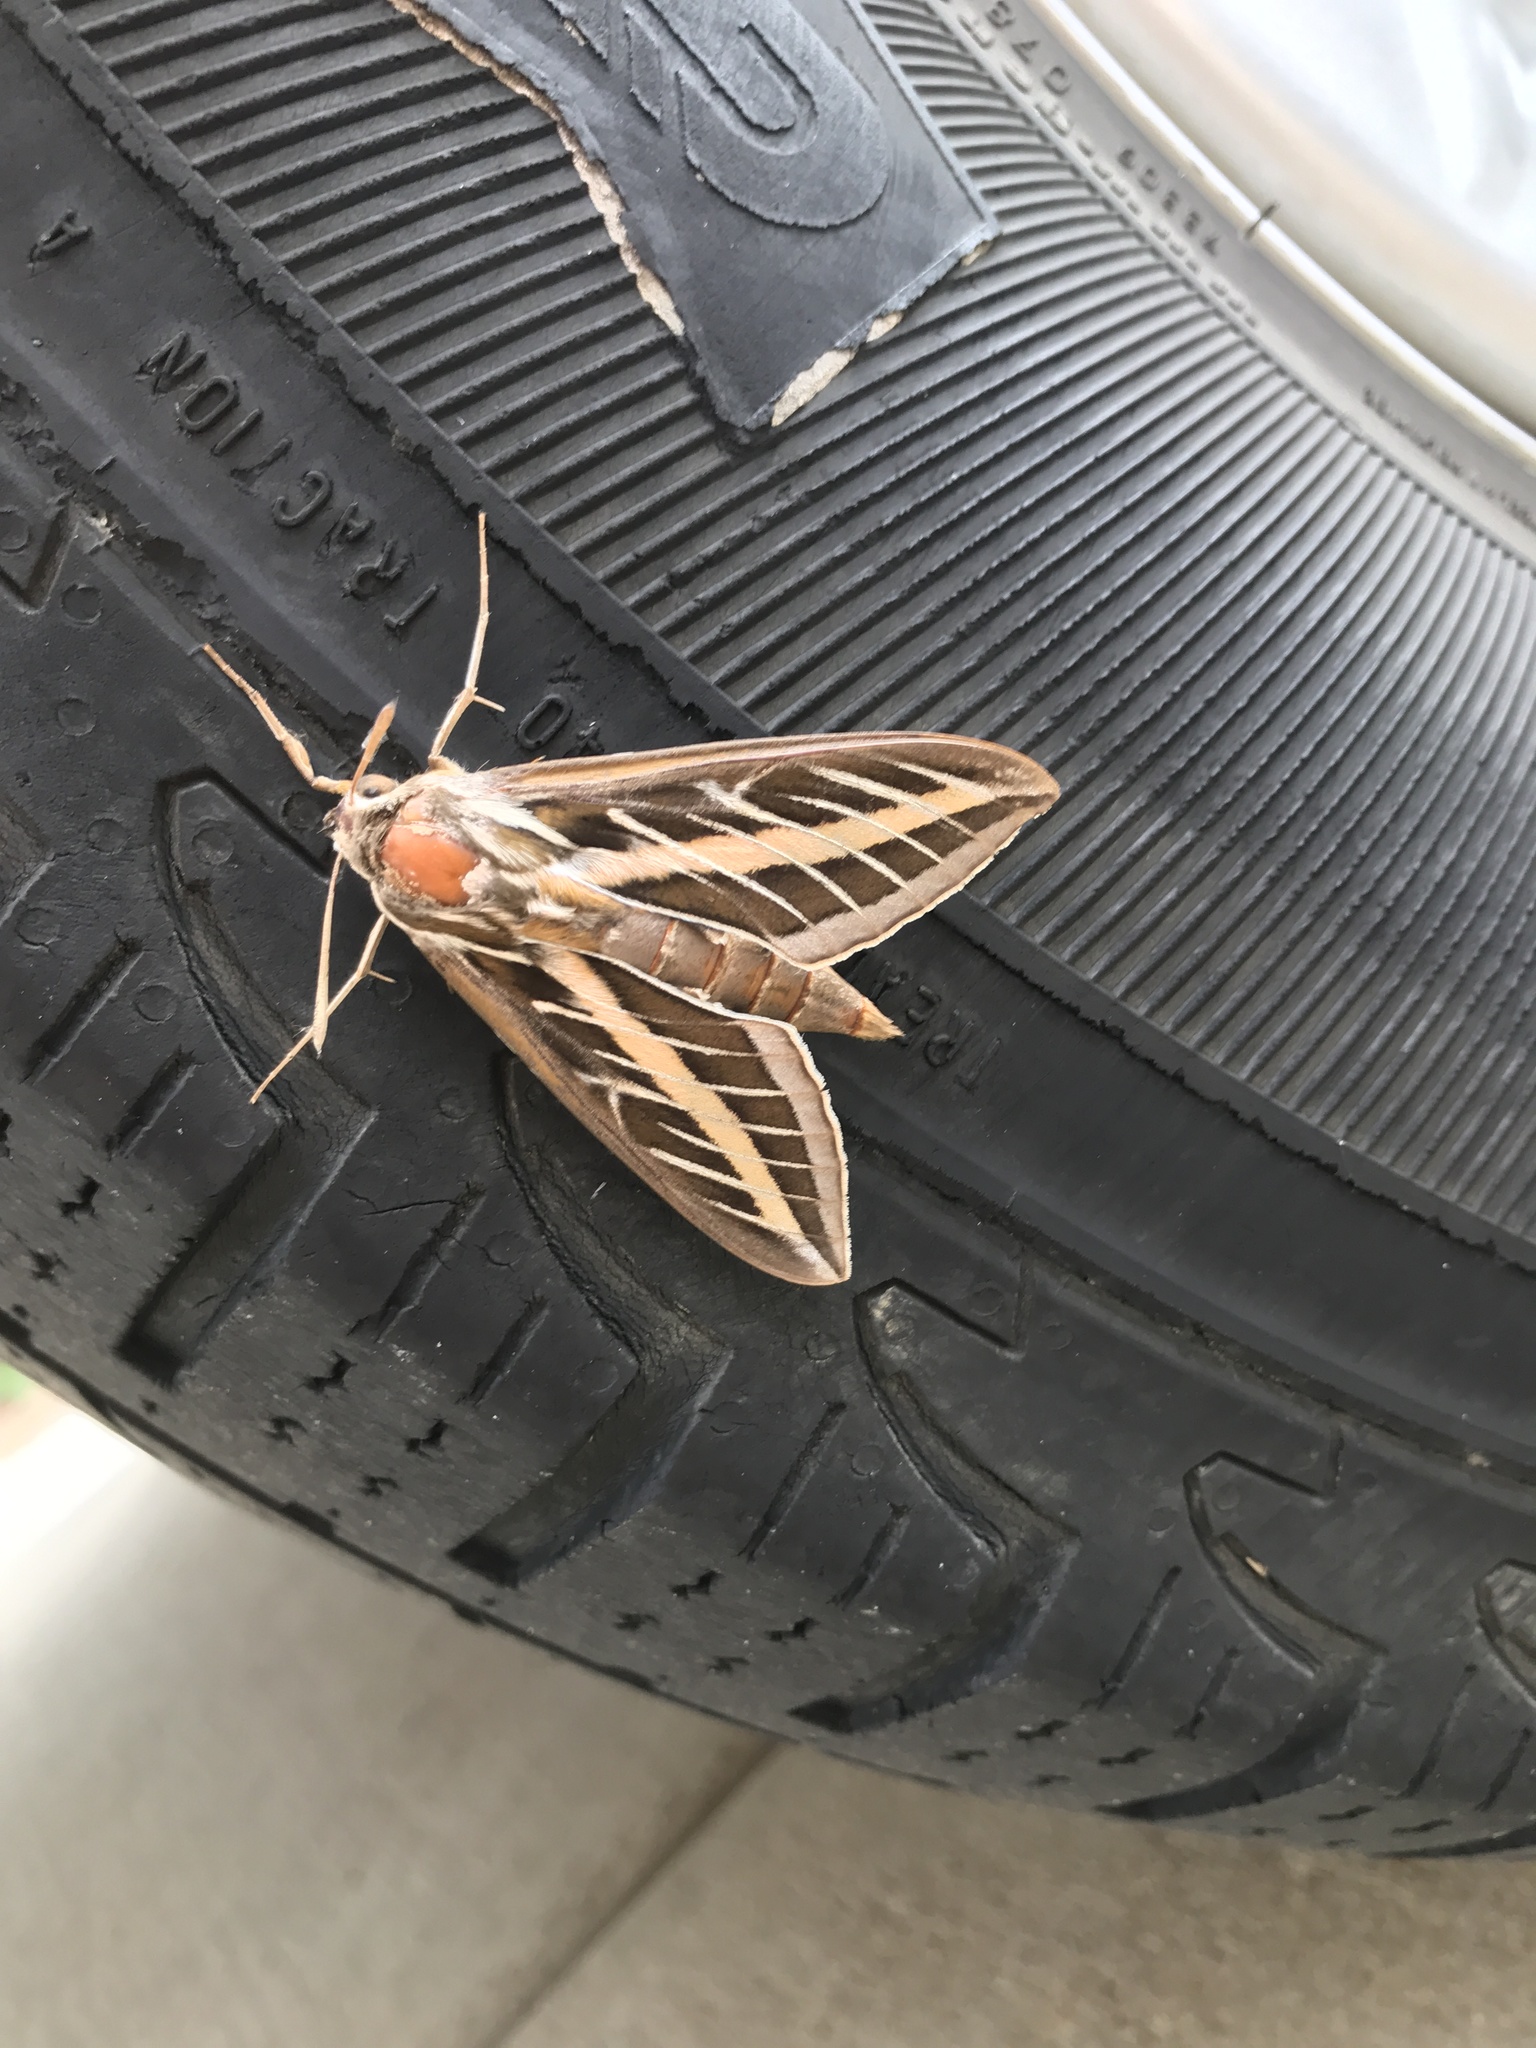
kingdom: Animalia
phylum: Arthropoda
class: Insecta
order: Lepidoptera
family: Sphingidae
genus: Hyles
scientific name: Hyles lineata
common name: White-lined sphinx
